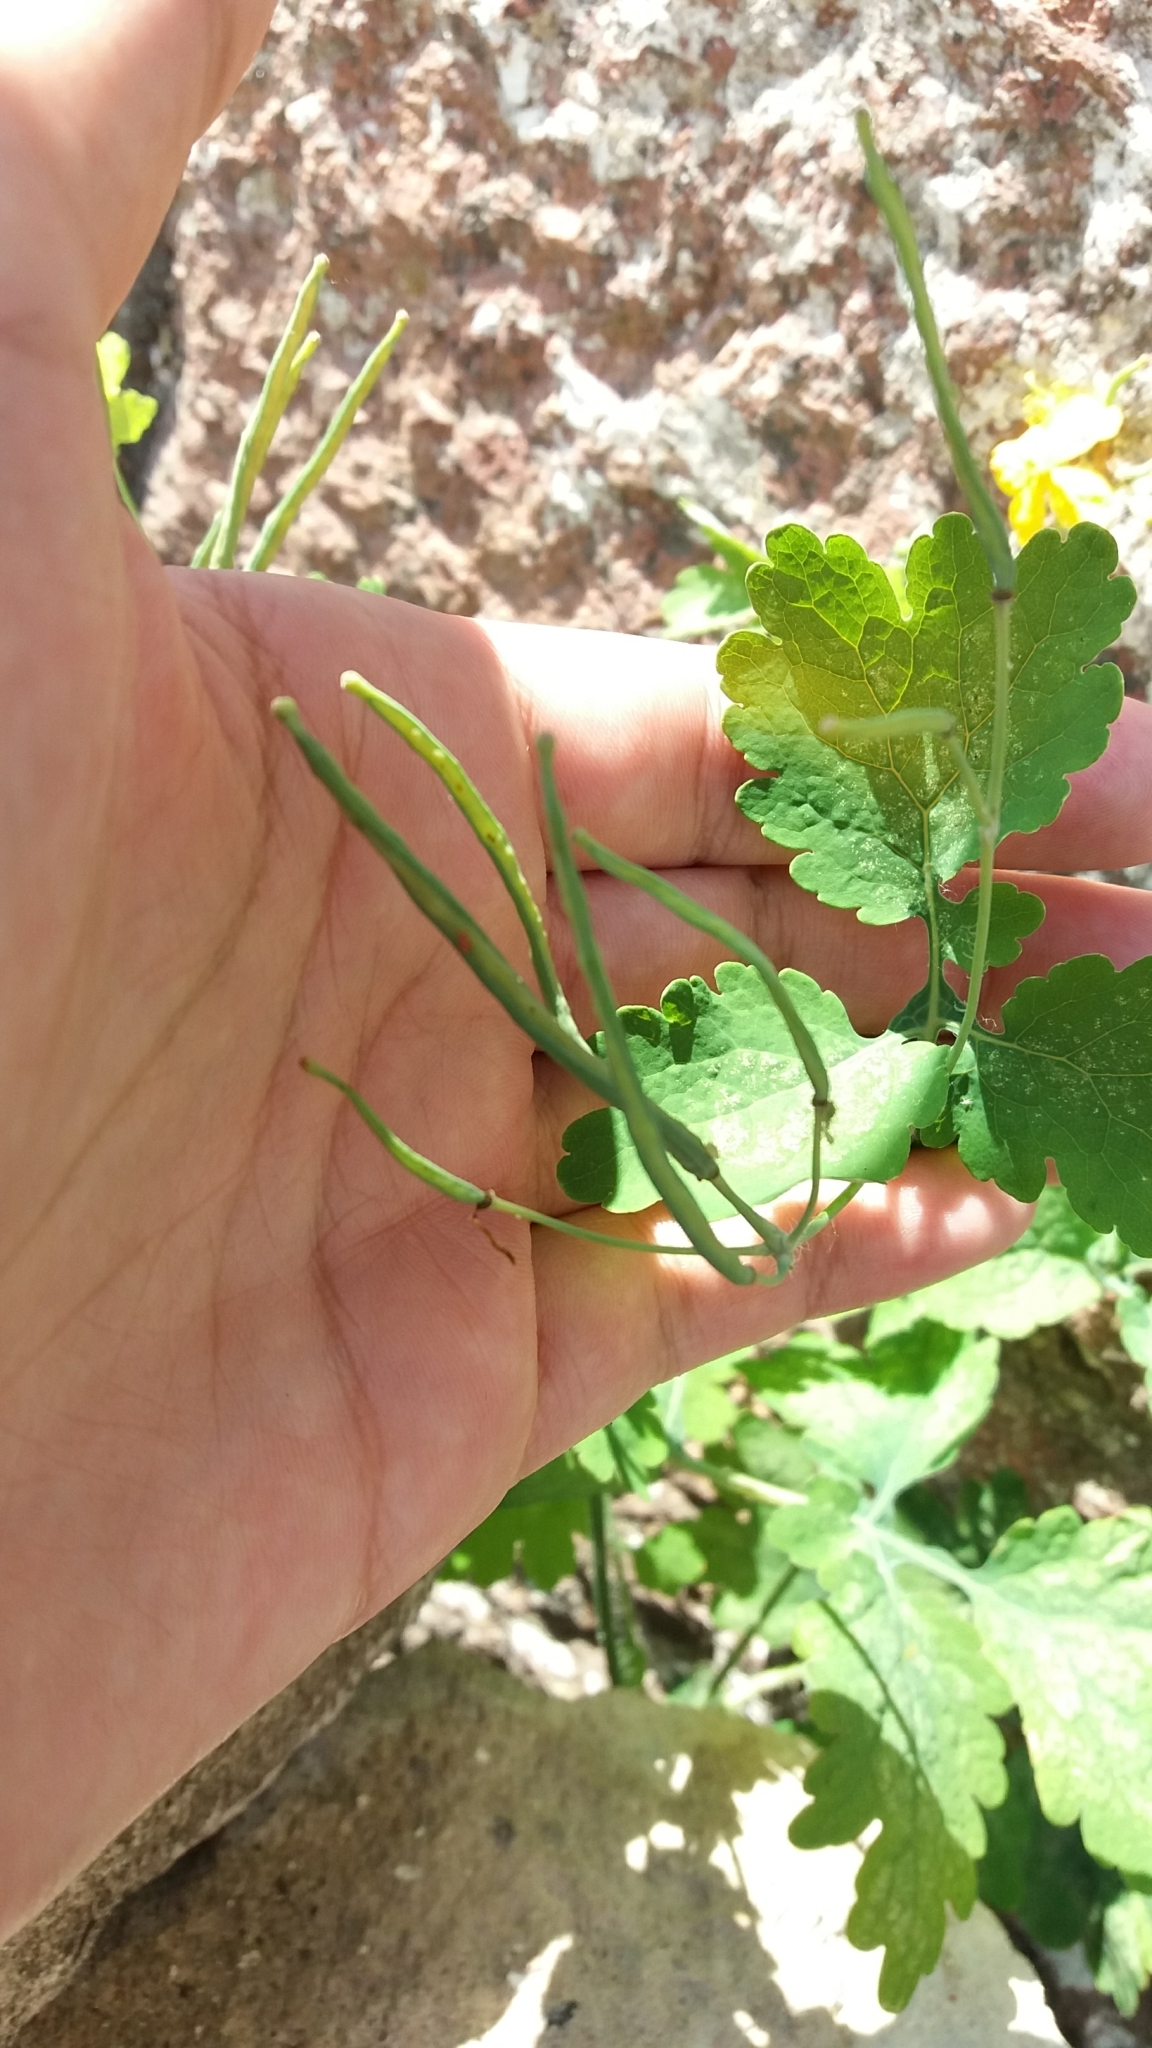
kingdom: Plantae
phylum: Tracheophyta
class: Magnoliopsida
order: Ranunculales
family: Papaveraceae
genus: Chelidonium
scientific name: Chelidonium majus
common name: Greater celandine
